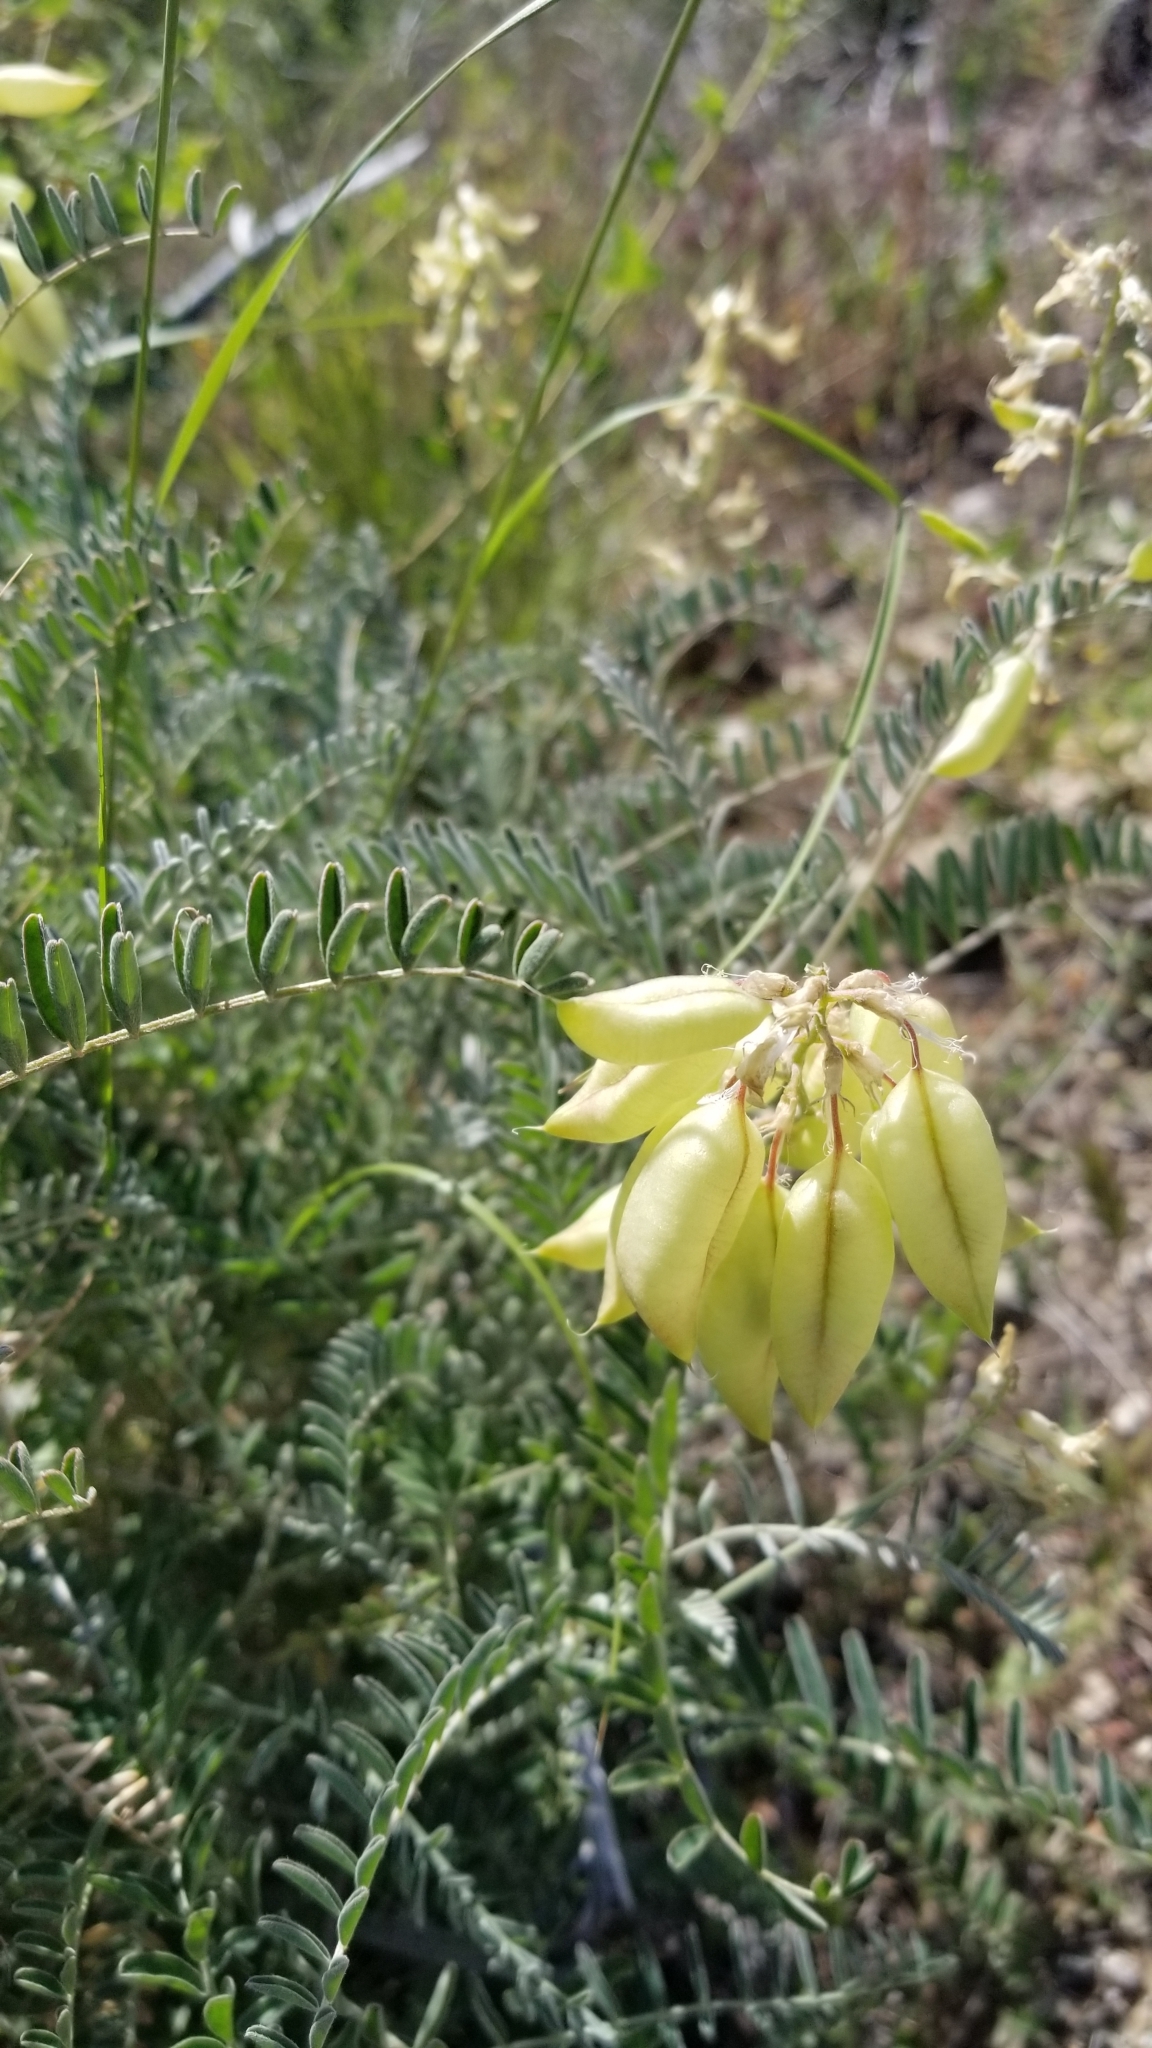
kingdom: Plantae
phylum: Tracheophyta
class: Magnoliopsida
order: Fabales
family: Fabaceae
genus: Astragalus
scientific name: Astragalus trichopodus
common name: Santa barbara milk-vetch
